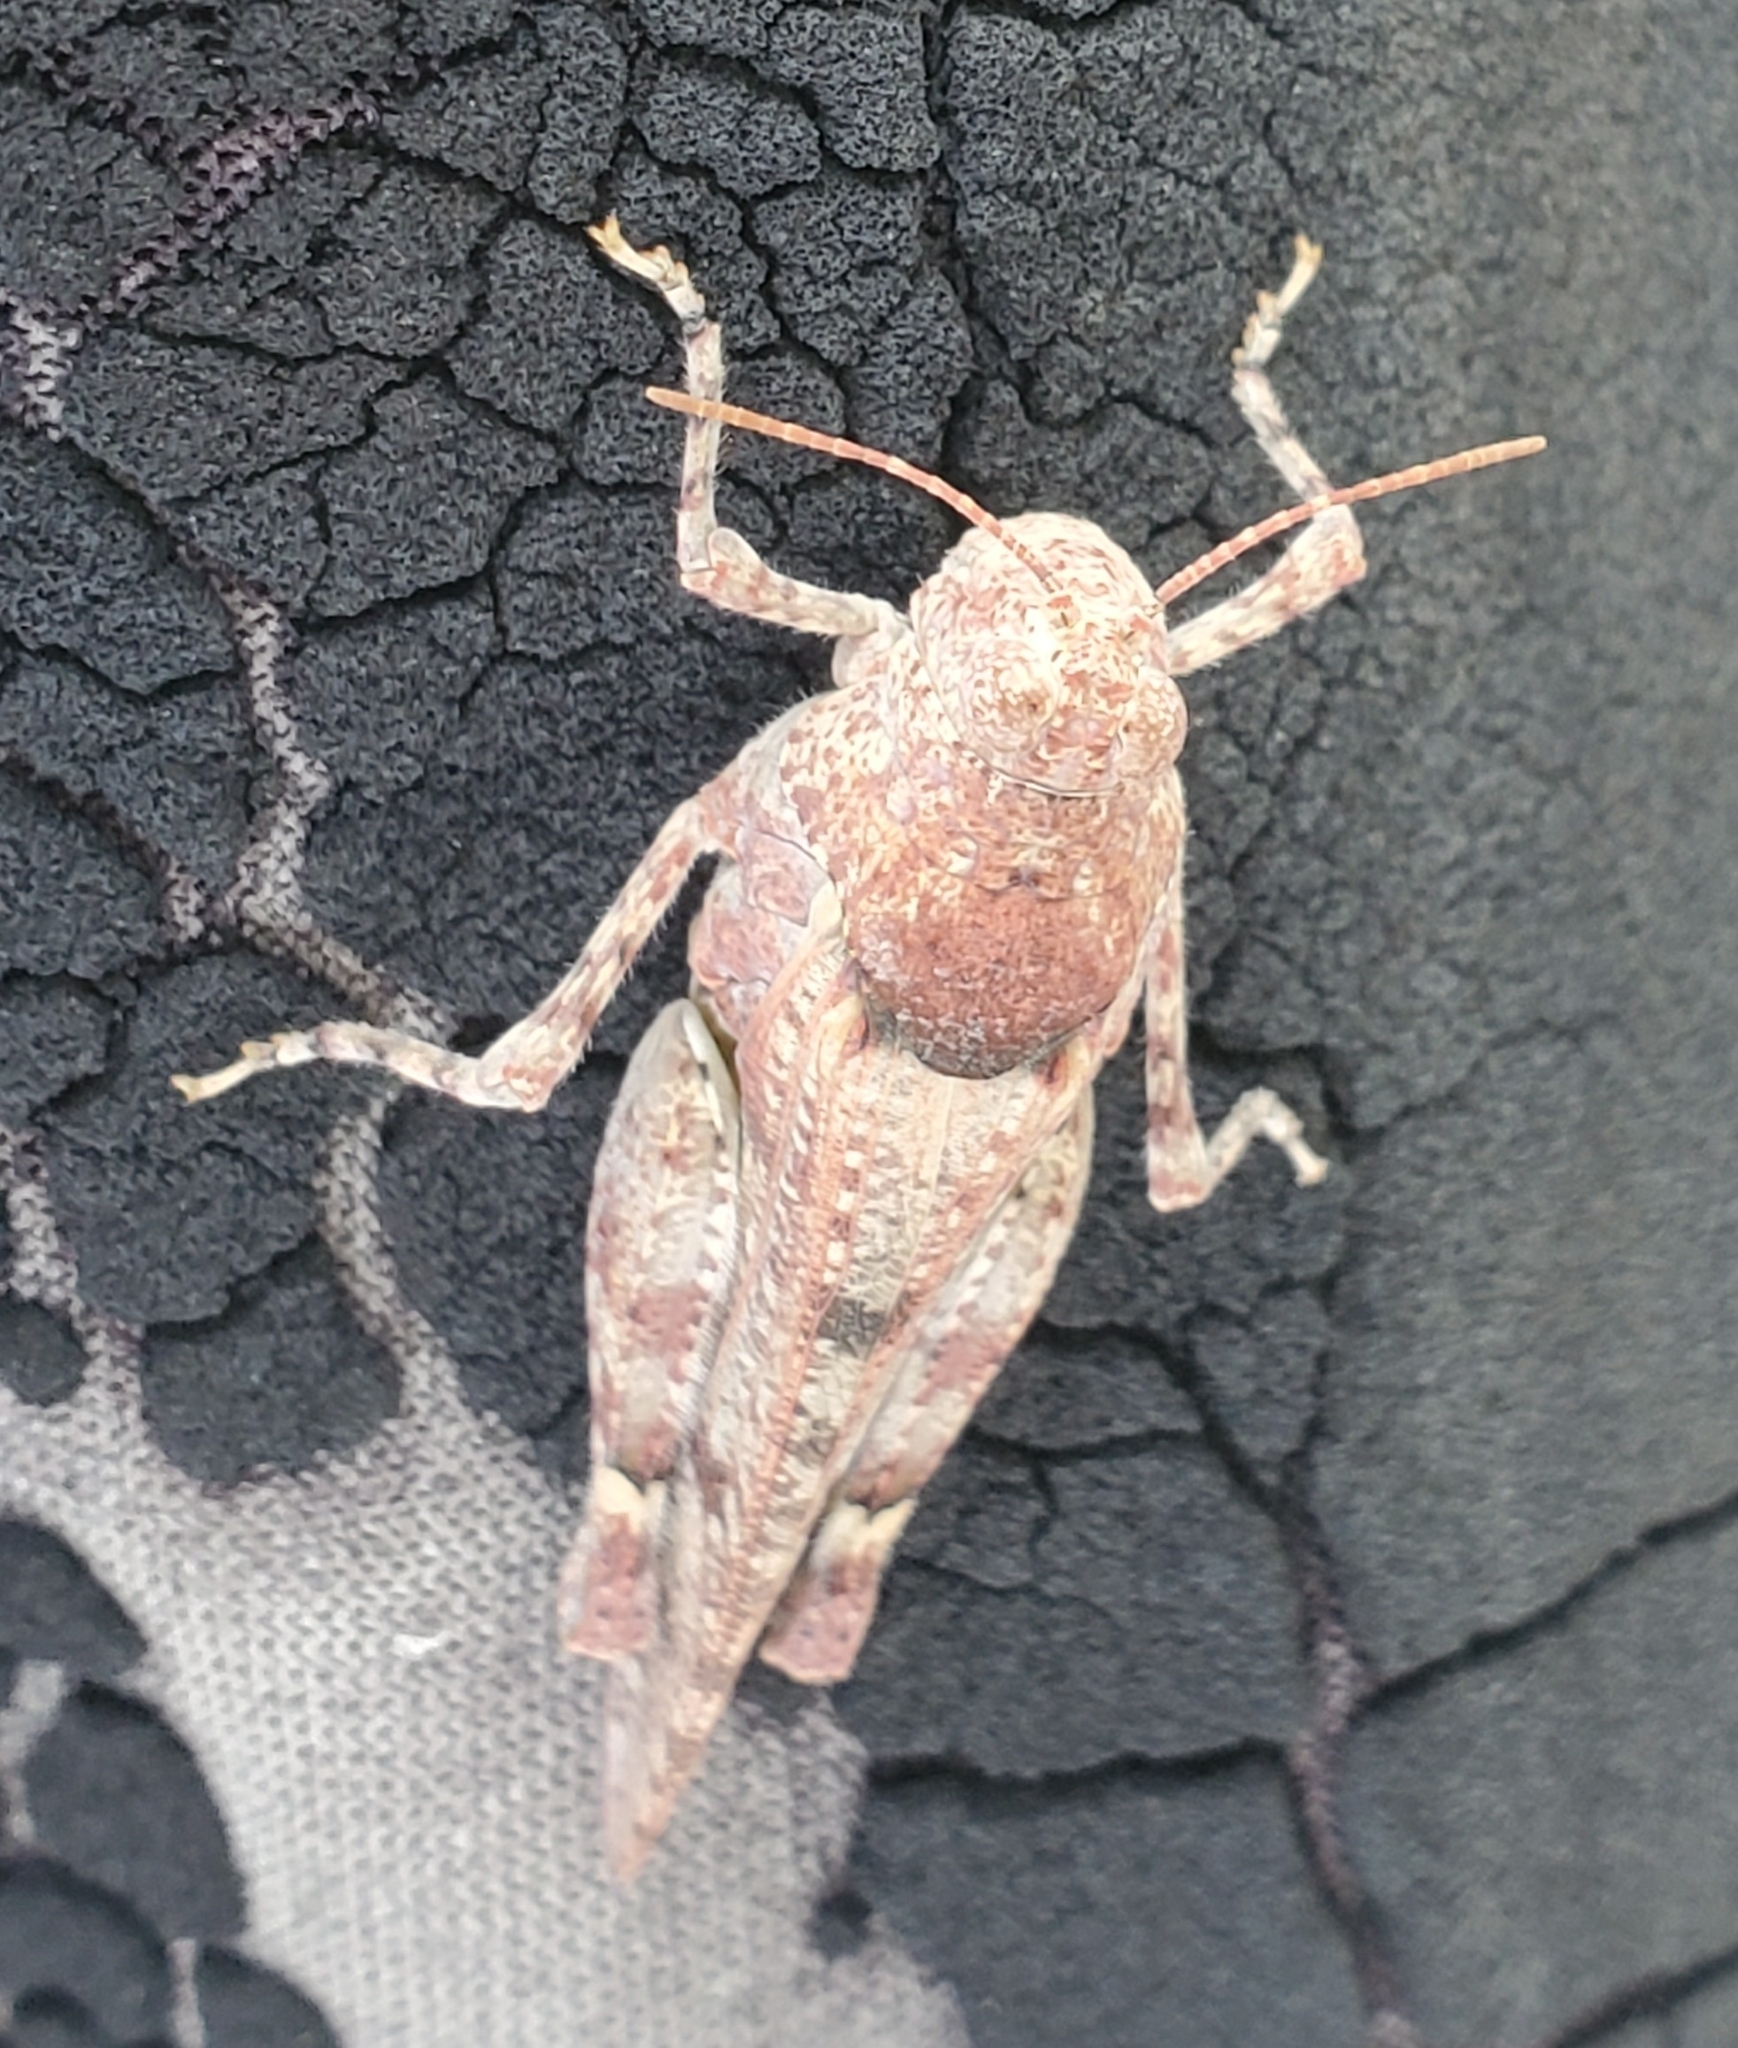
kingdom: Animalia
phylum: Arthropoda
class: Insecta
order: Orthoptera
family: Acrididae
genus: Cibolacris
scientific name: Cibolacris parviceps
